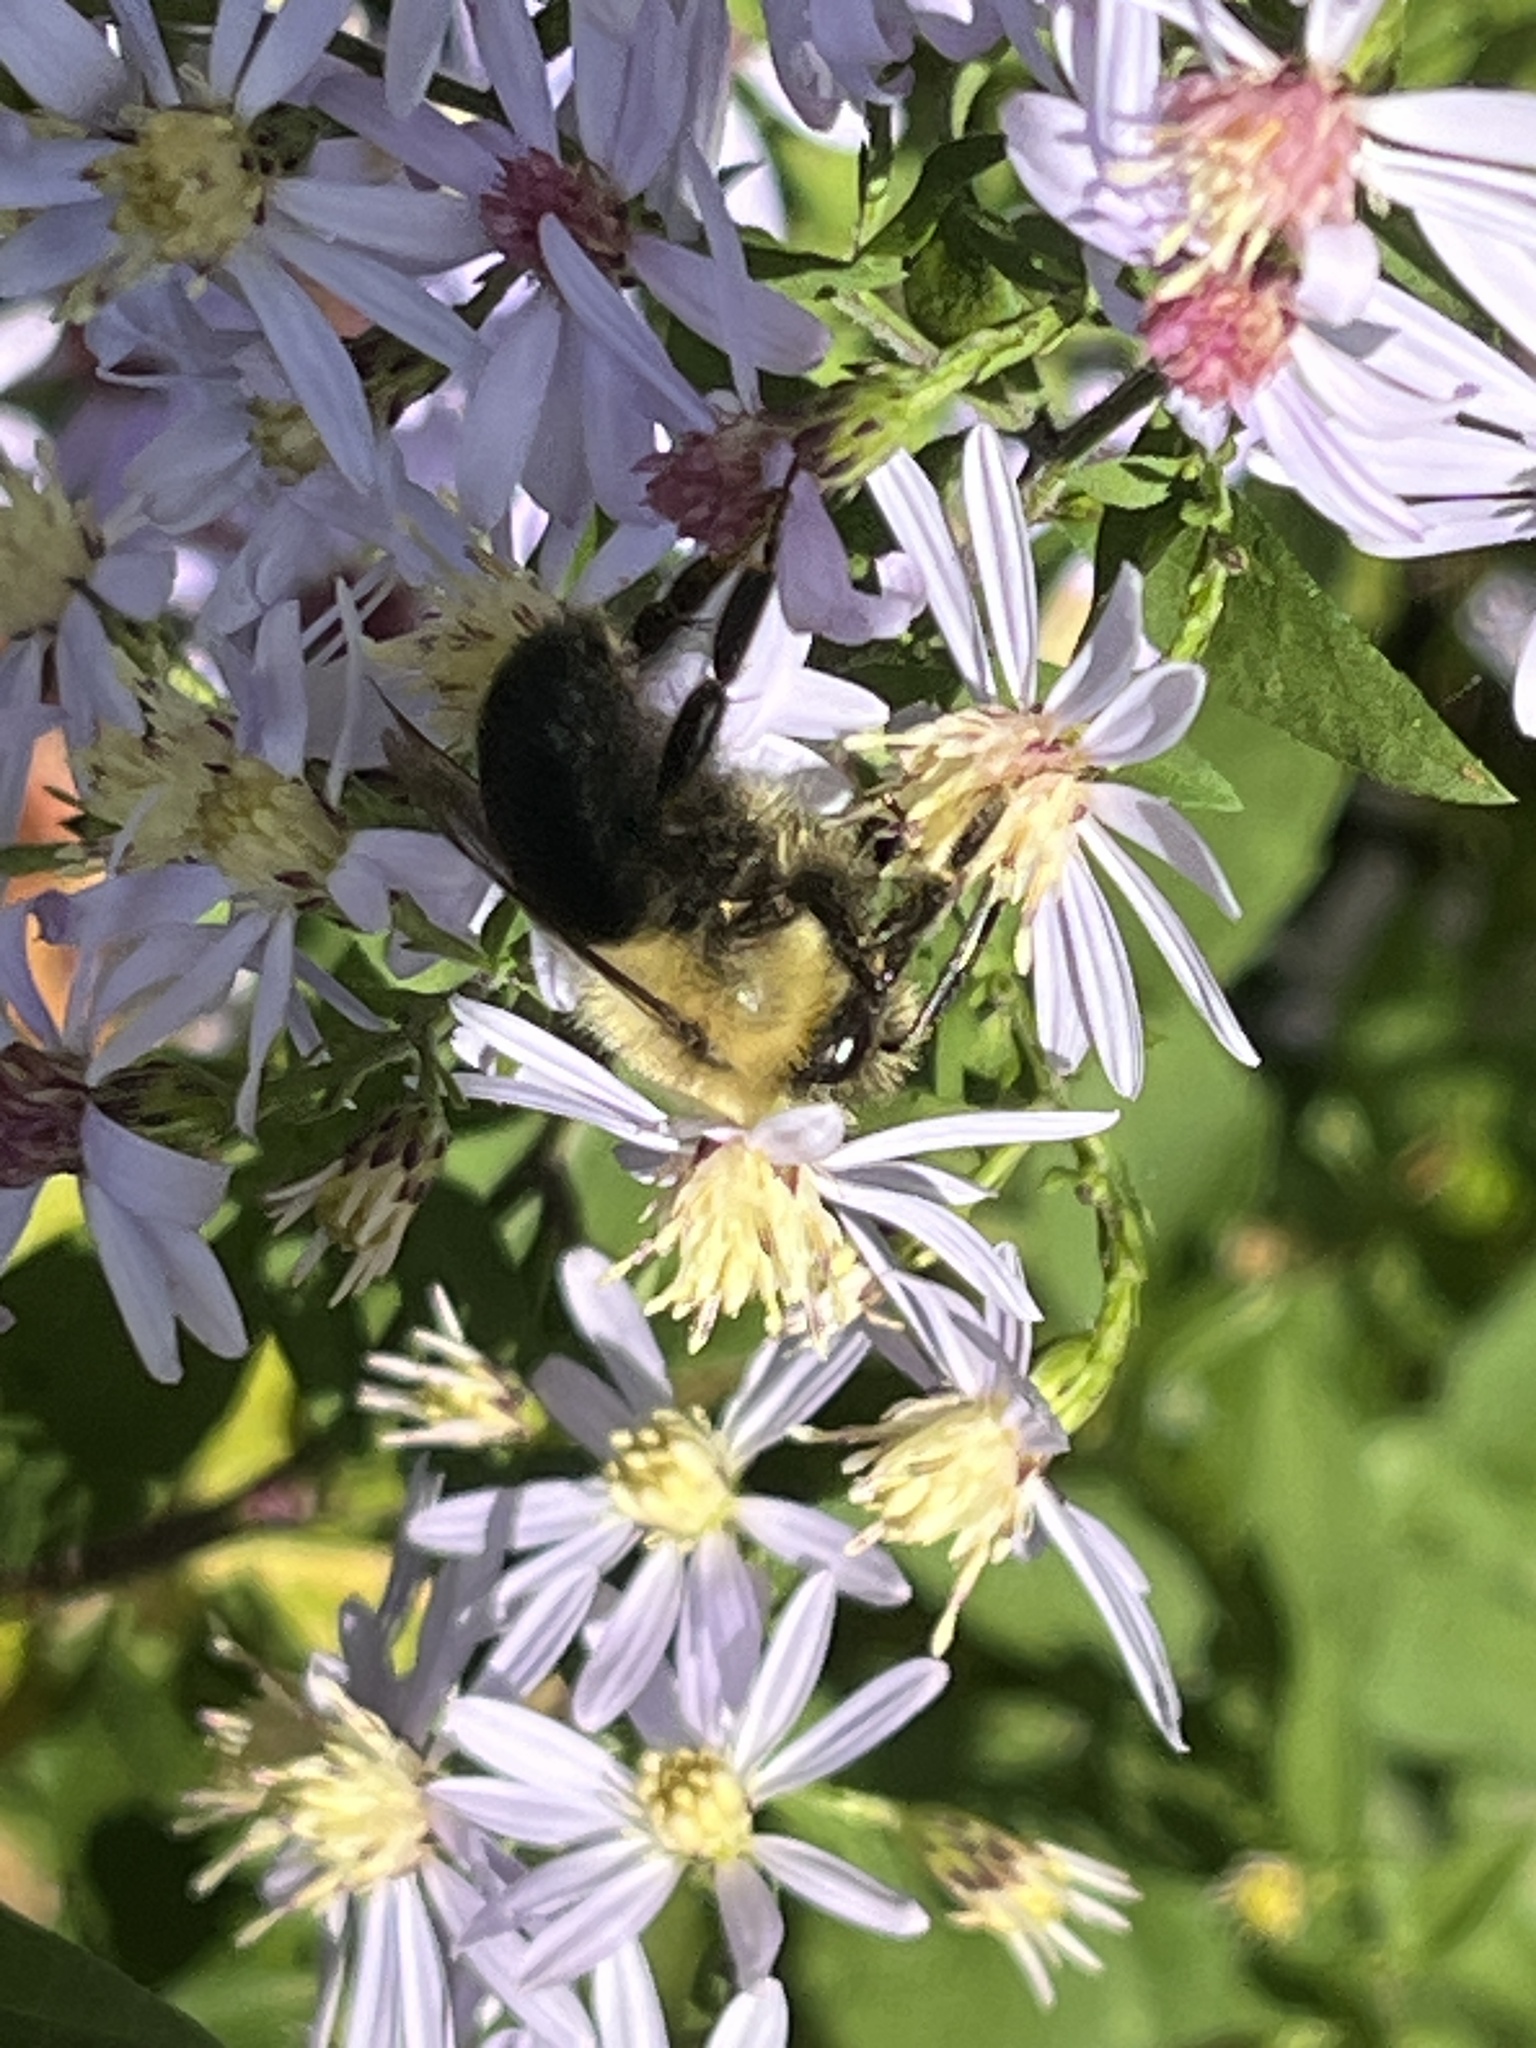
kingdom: Animalia
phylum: Arthropoda
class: Insecta
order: Hymenoptera
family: Apidae
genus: Bombus
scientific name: Bombus impatiens
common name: Common eastern bumble bee
